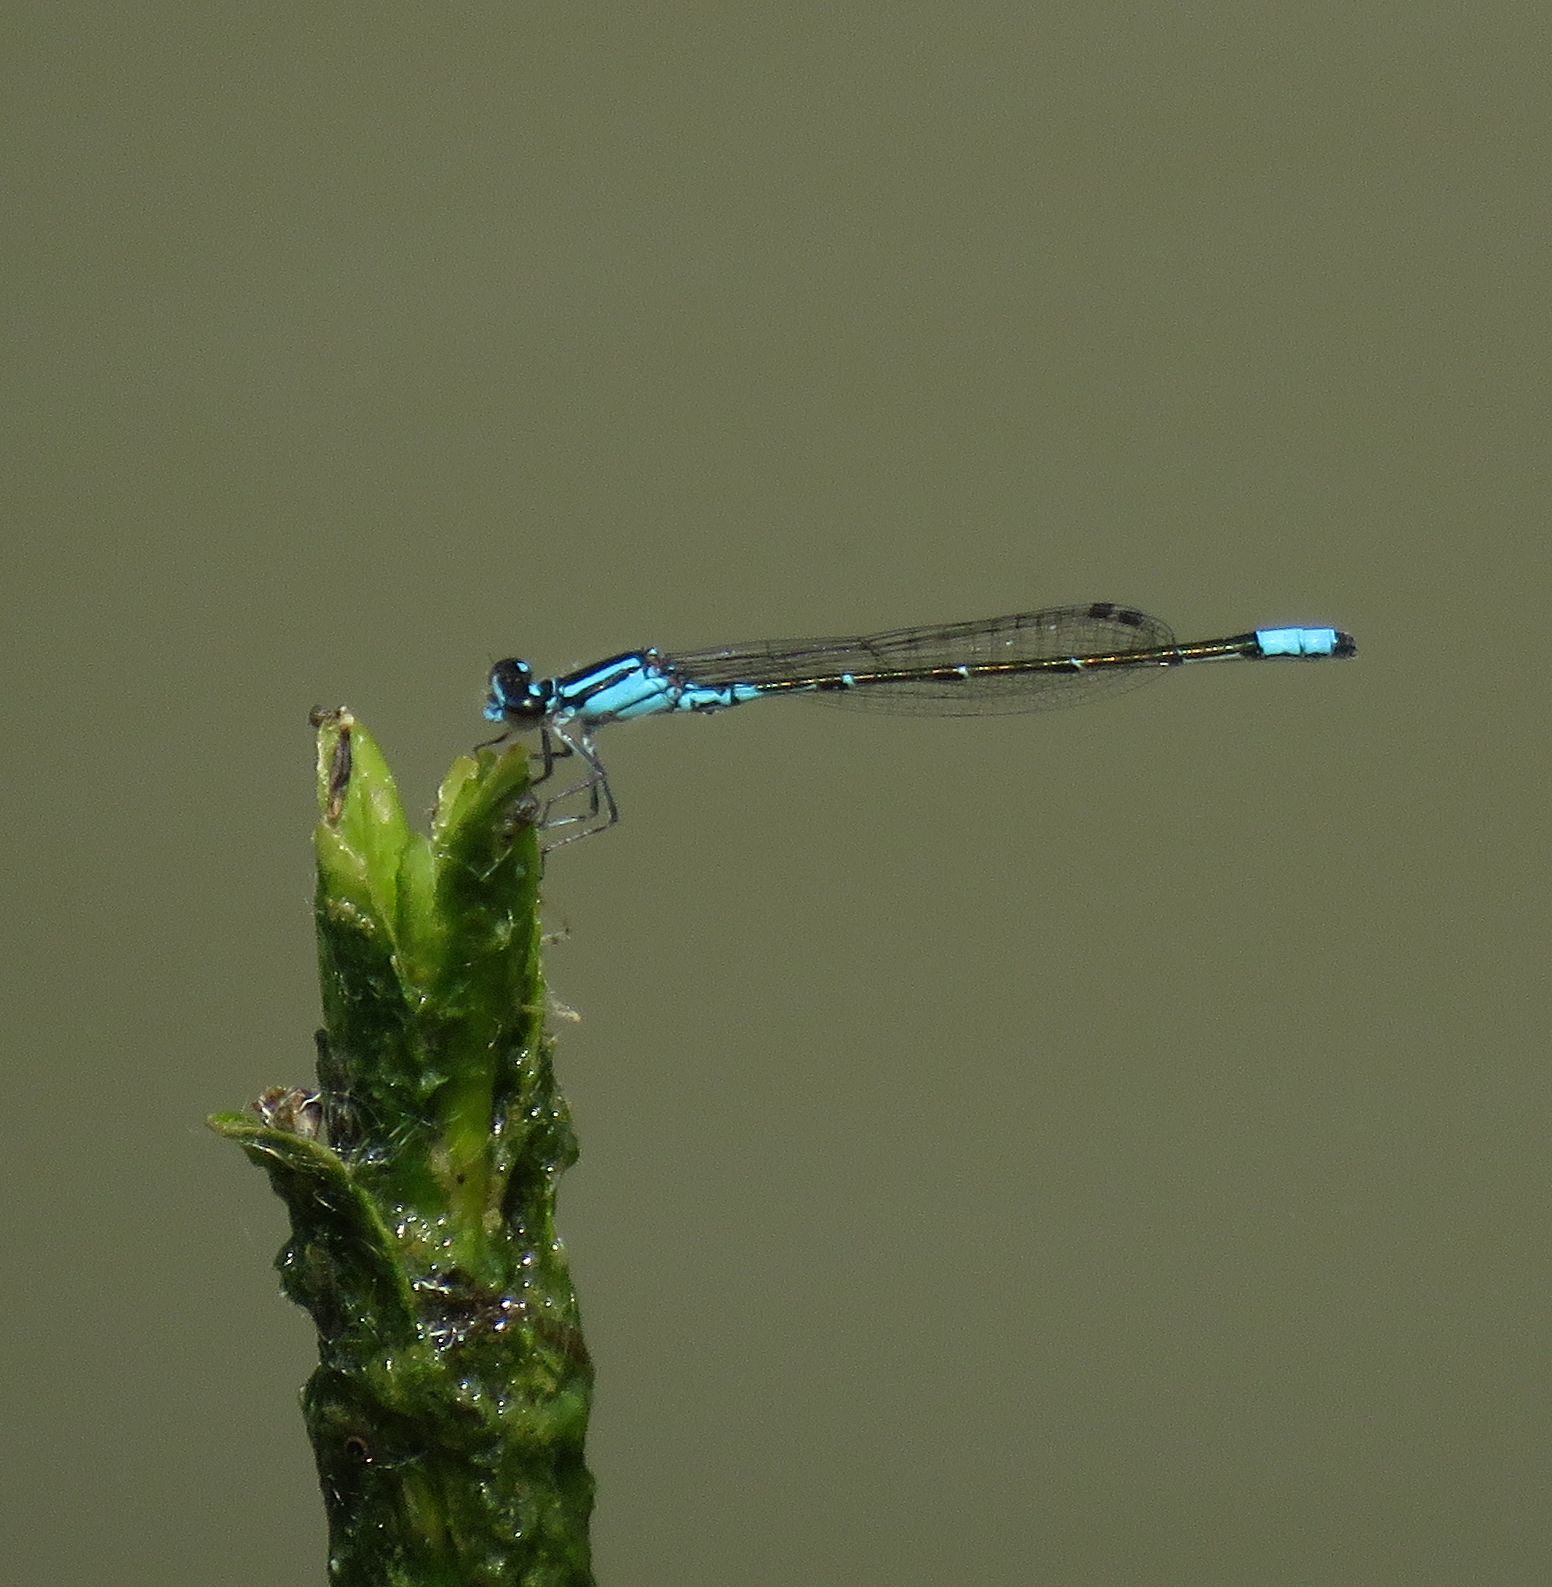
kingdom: Animalia
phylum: Arthropoda
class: Insecta
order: Odonata
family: Coenagrionidae
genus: Enallagma
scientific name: Enallagma geminatum
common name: Skimming bluet
